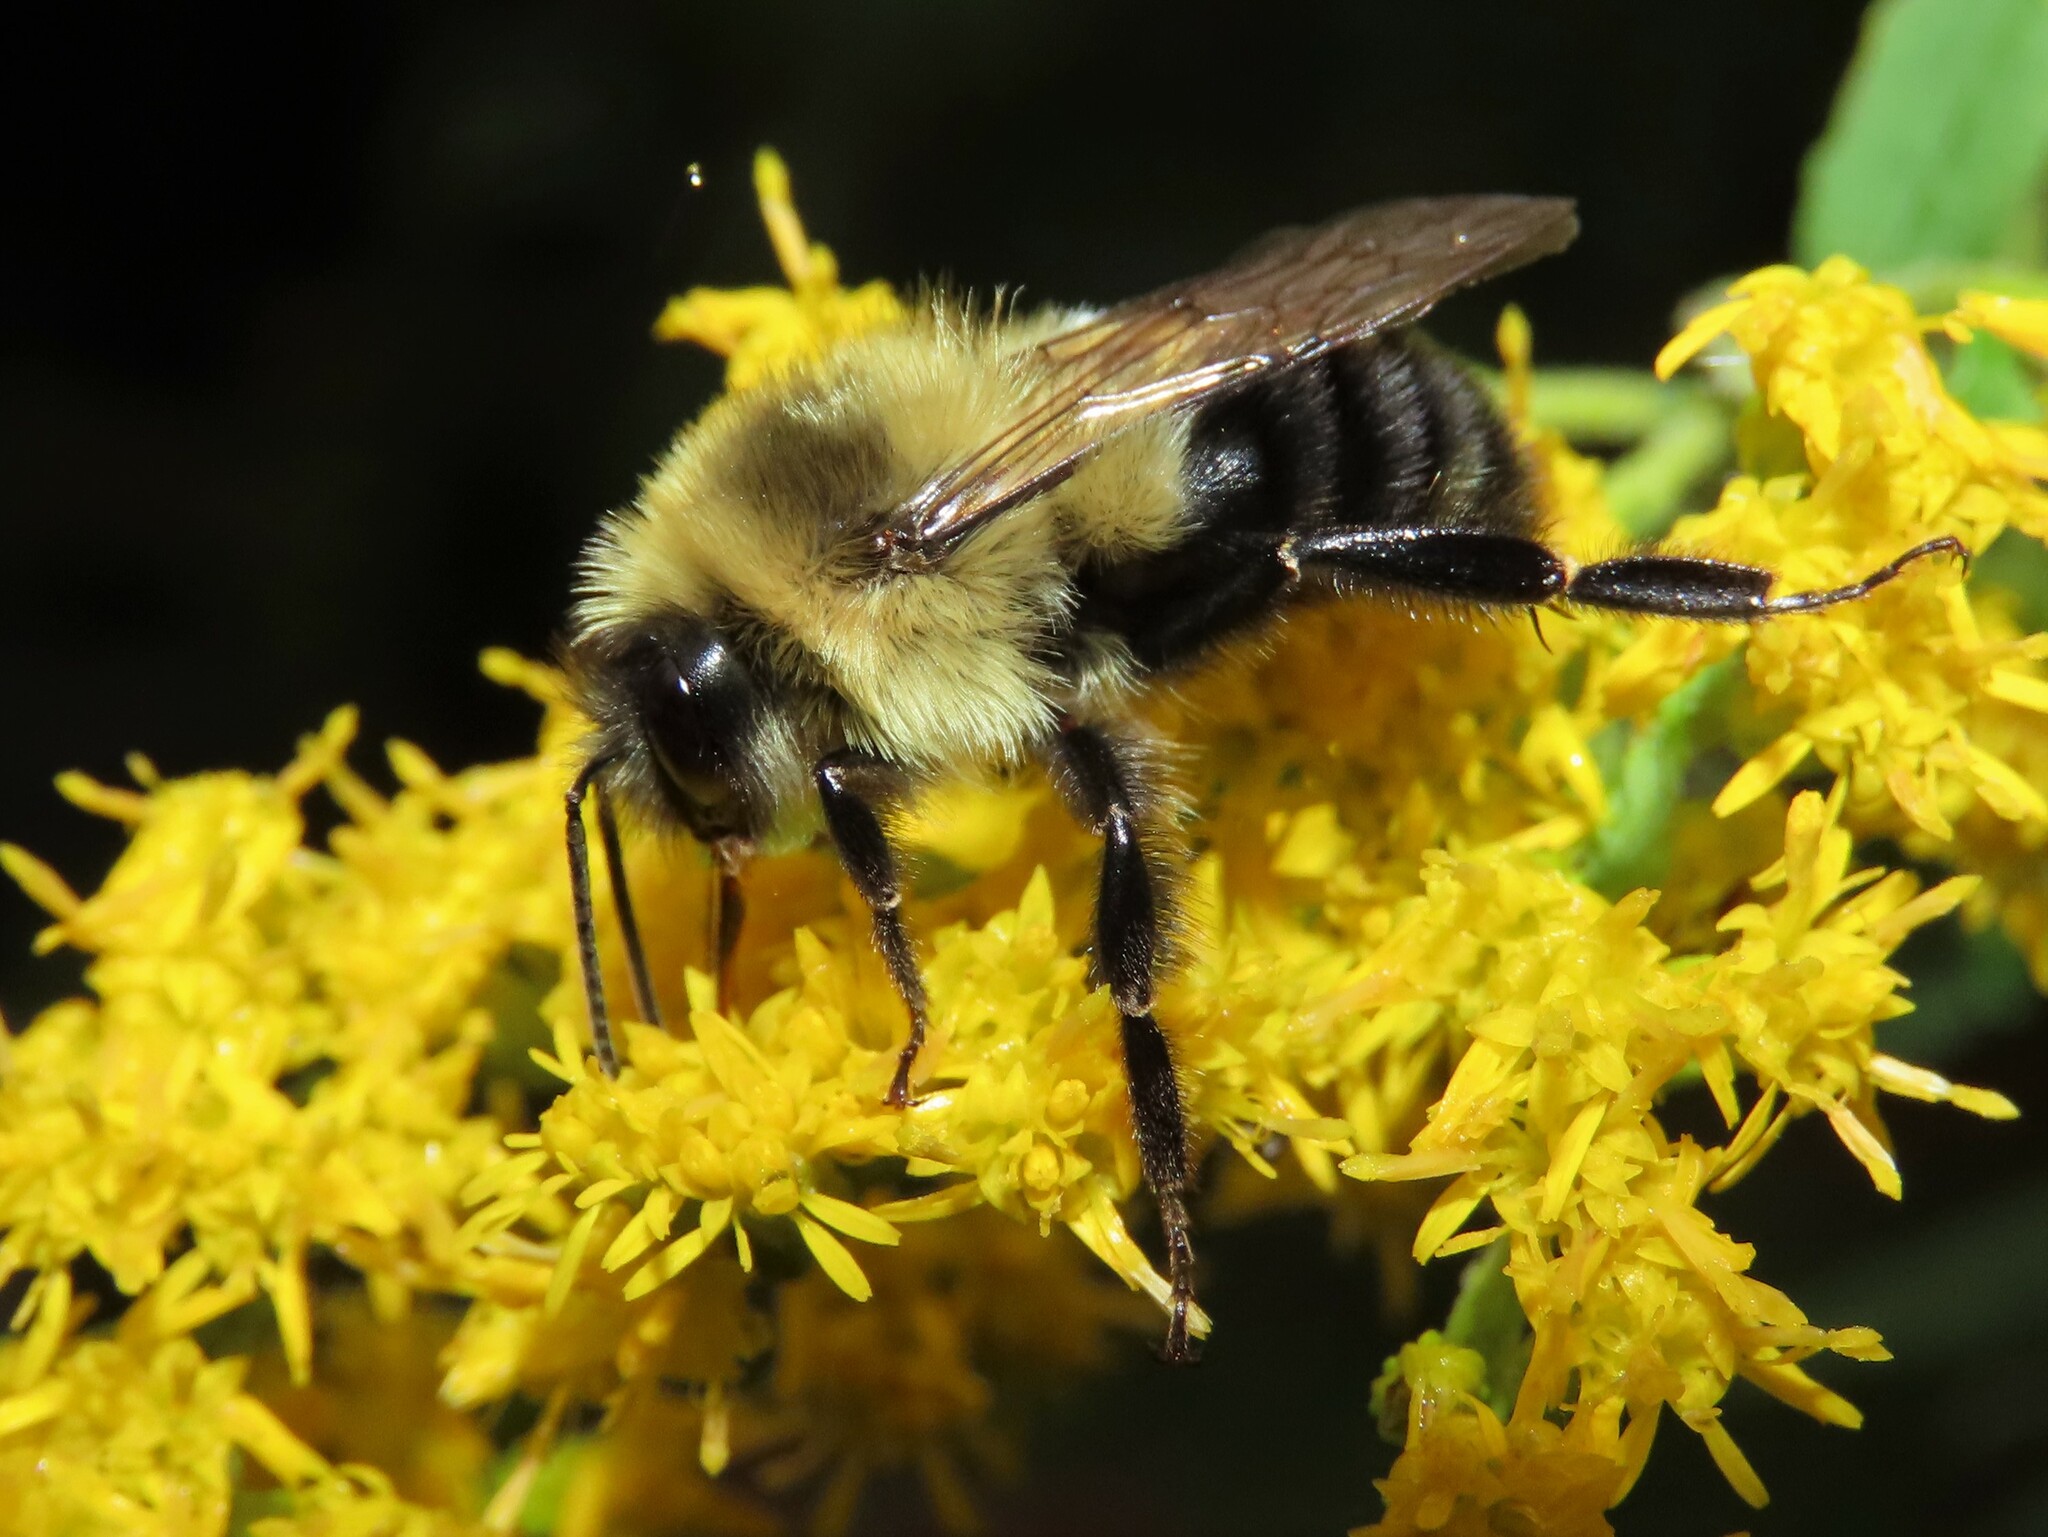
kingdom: Animalia
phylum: Arthropoda
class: Insecta
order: Hymenoptera
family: Apidae
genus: Bombus
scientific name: Bombus impatiens
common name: Common eastern bumble bee
